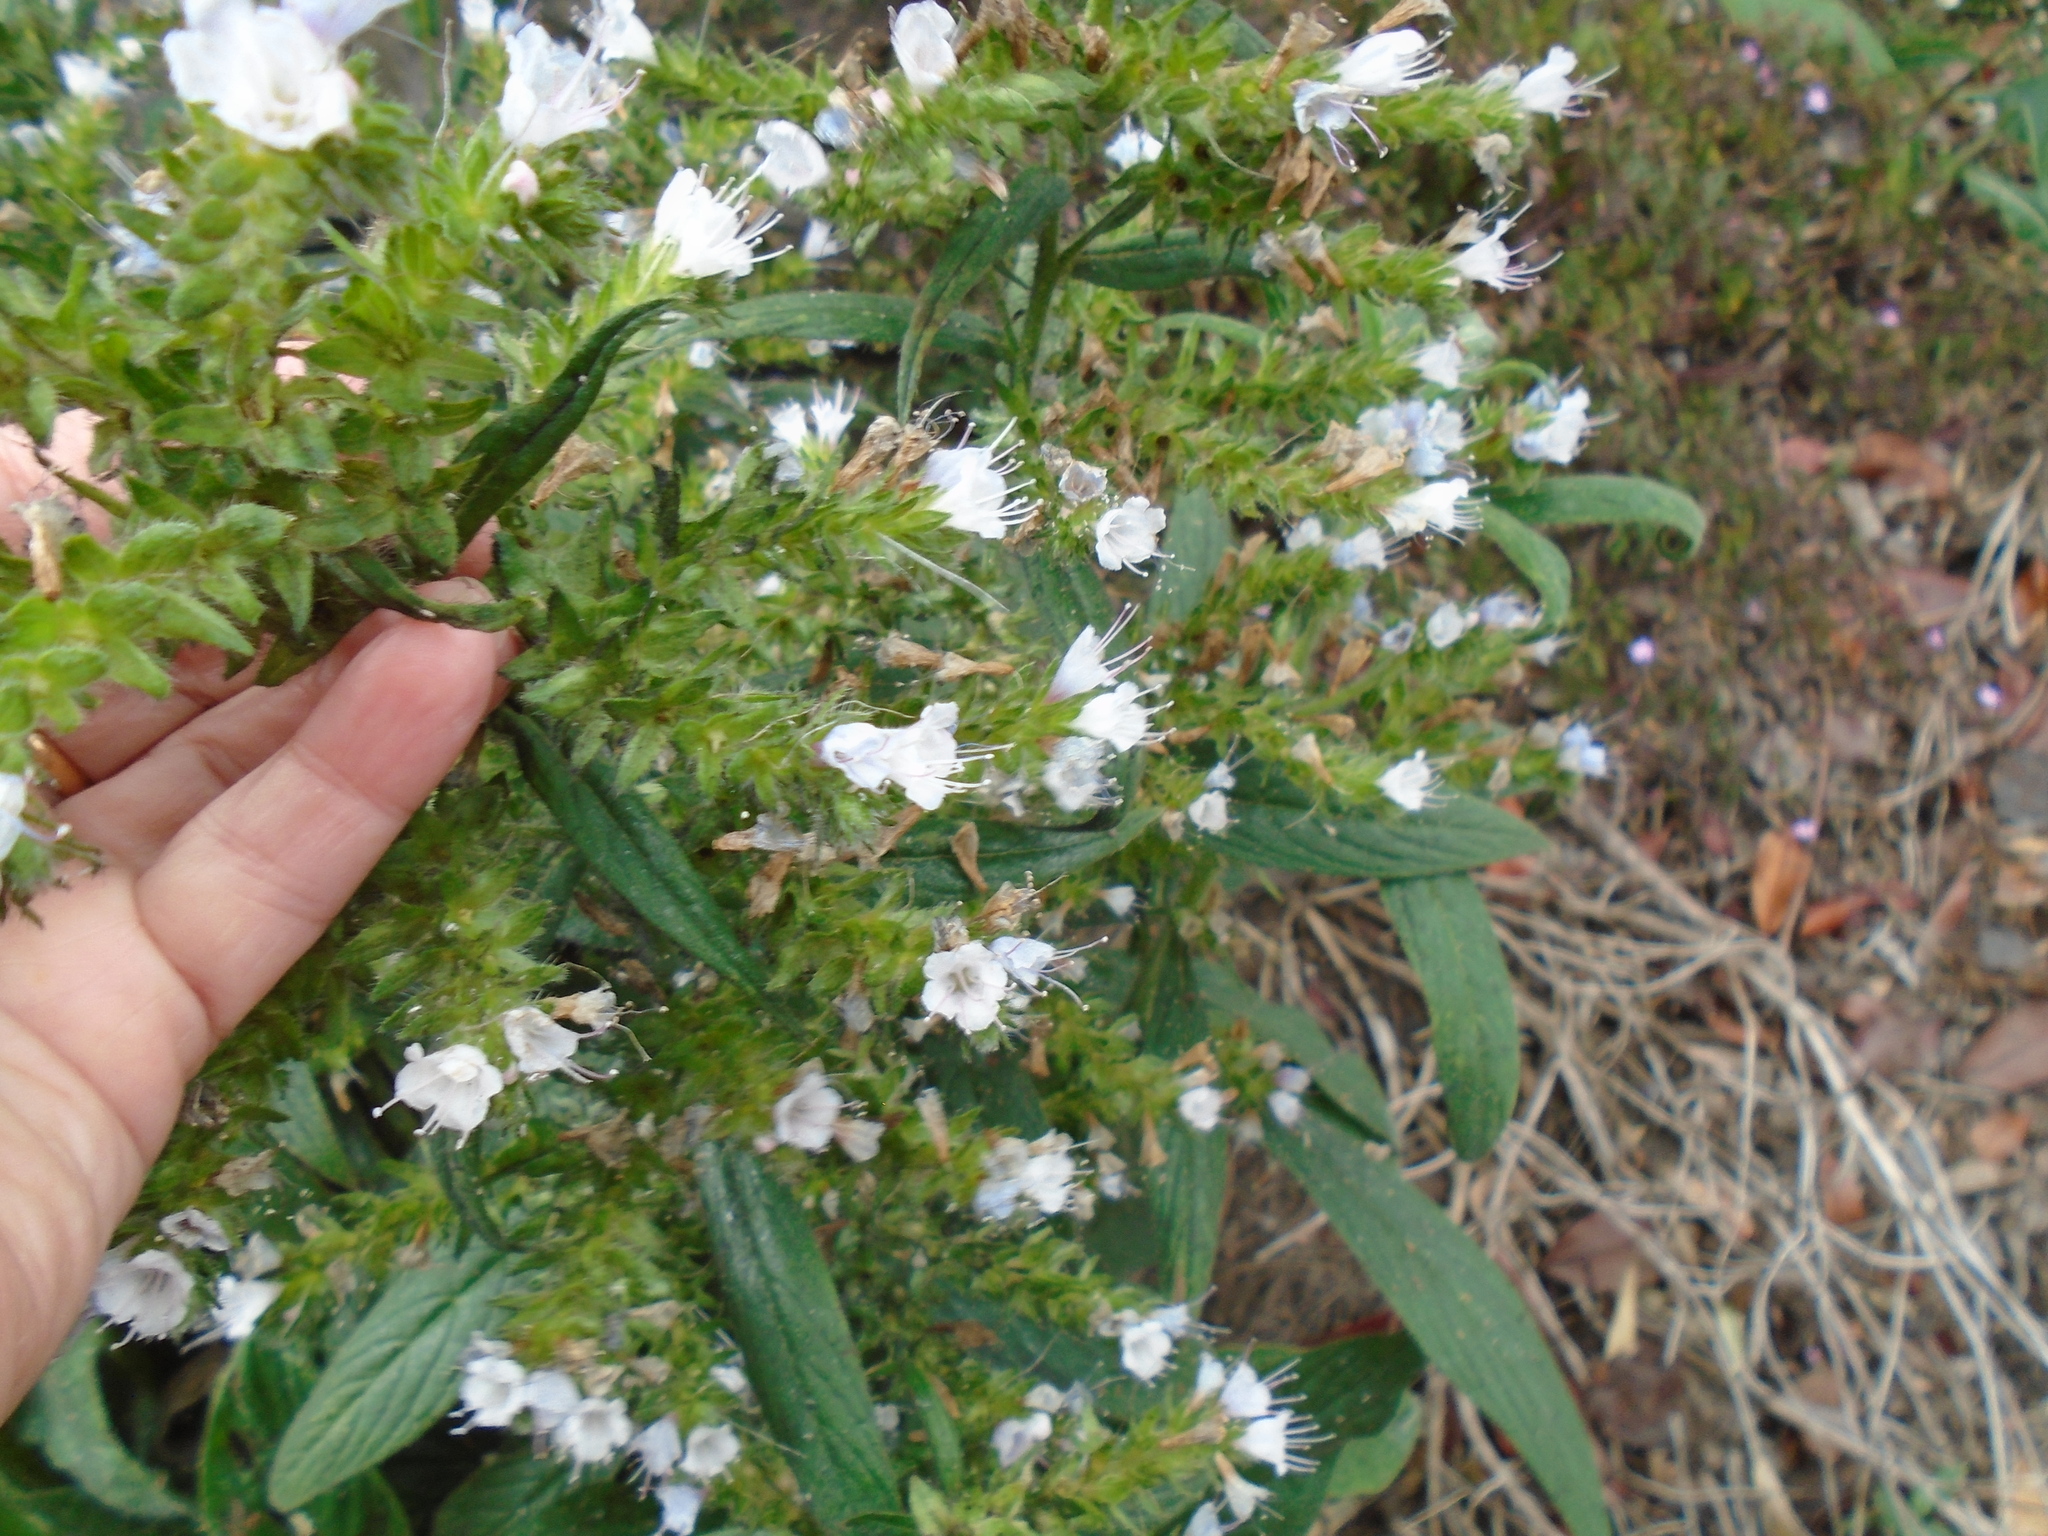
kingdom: Plantae
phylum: Tracheophyta
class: Magnoliopsida
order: Boraginales
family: Boraginaceae
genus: Echium
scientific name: Echium pininana
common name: Giant viper's-bugloss
